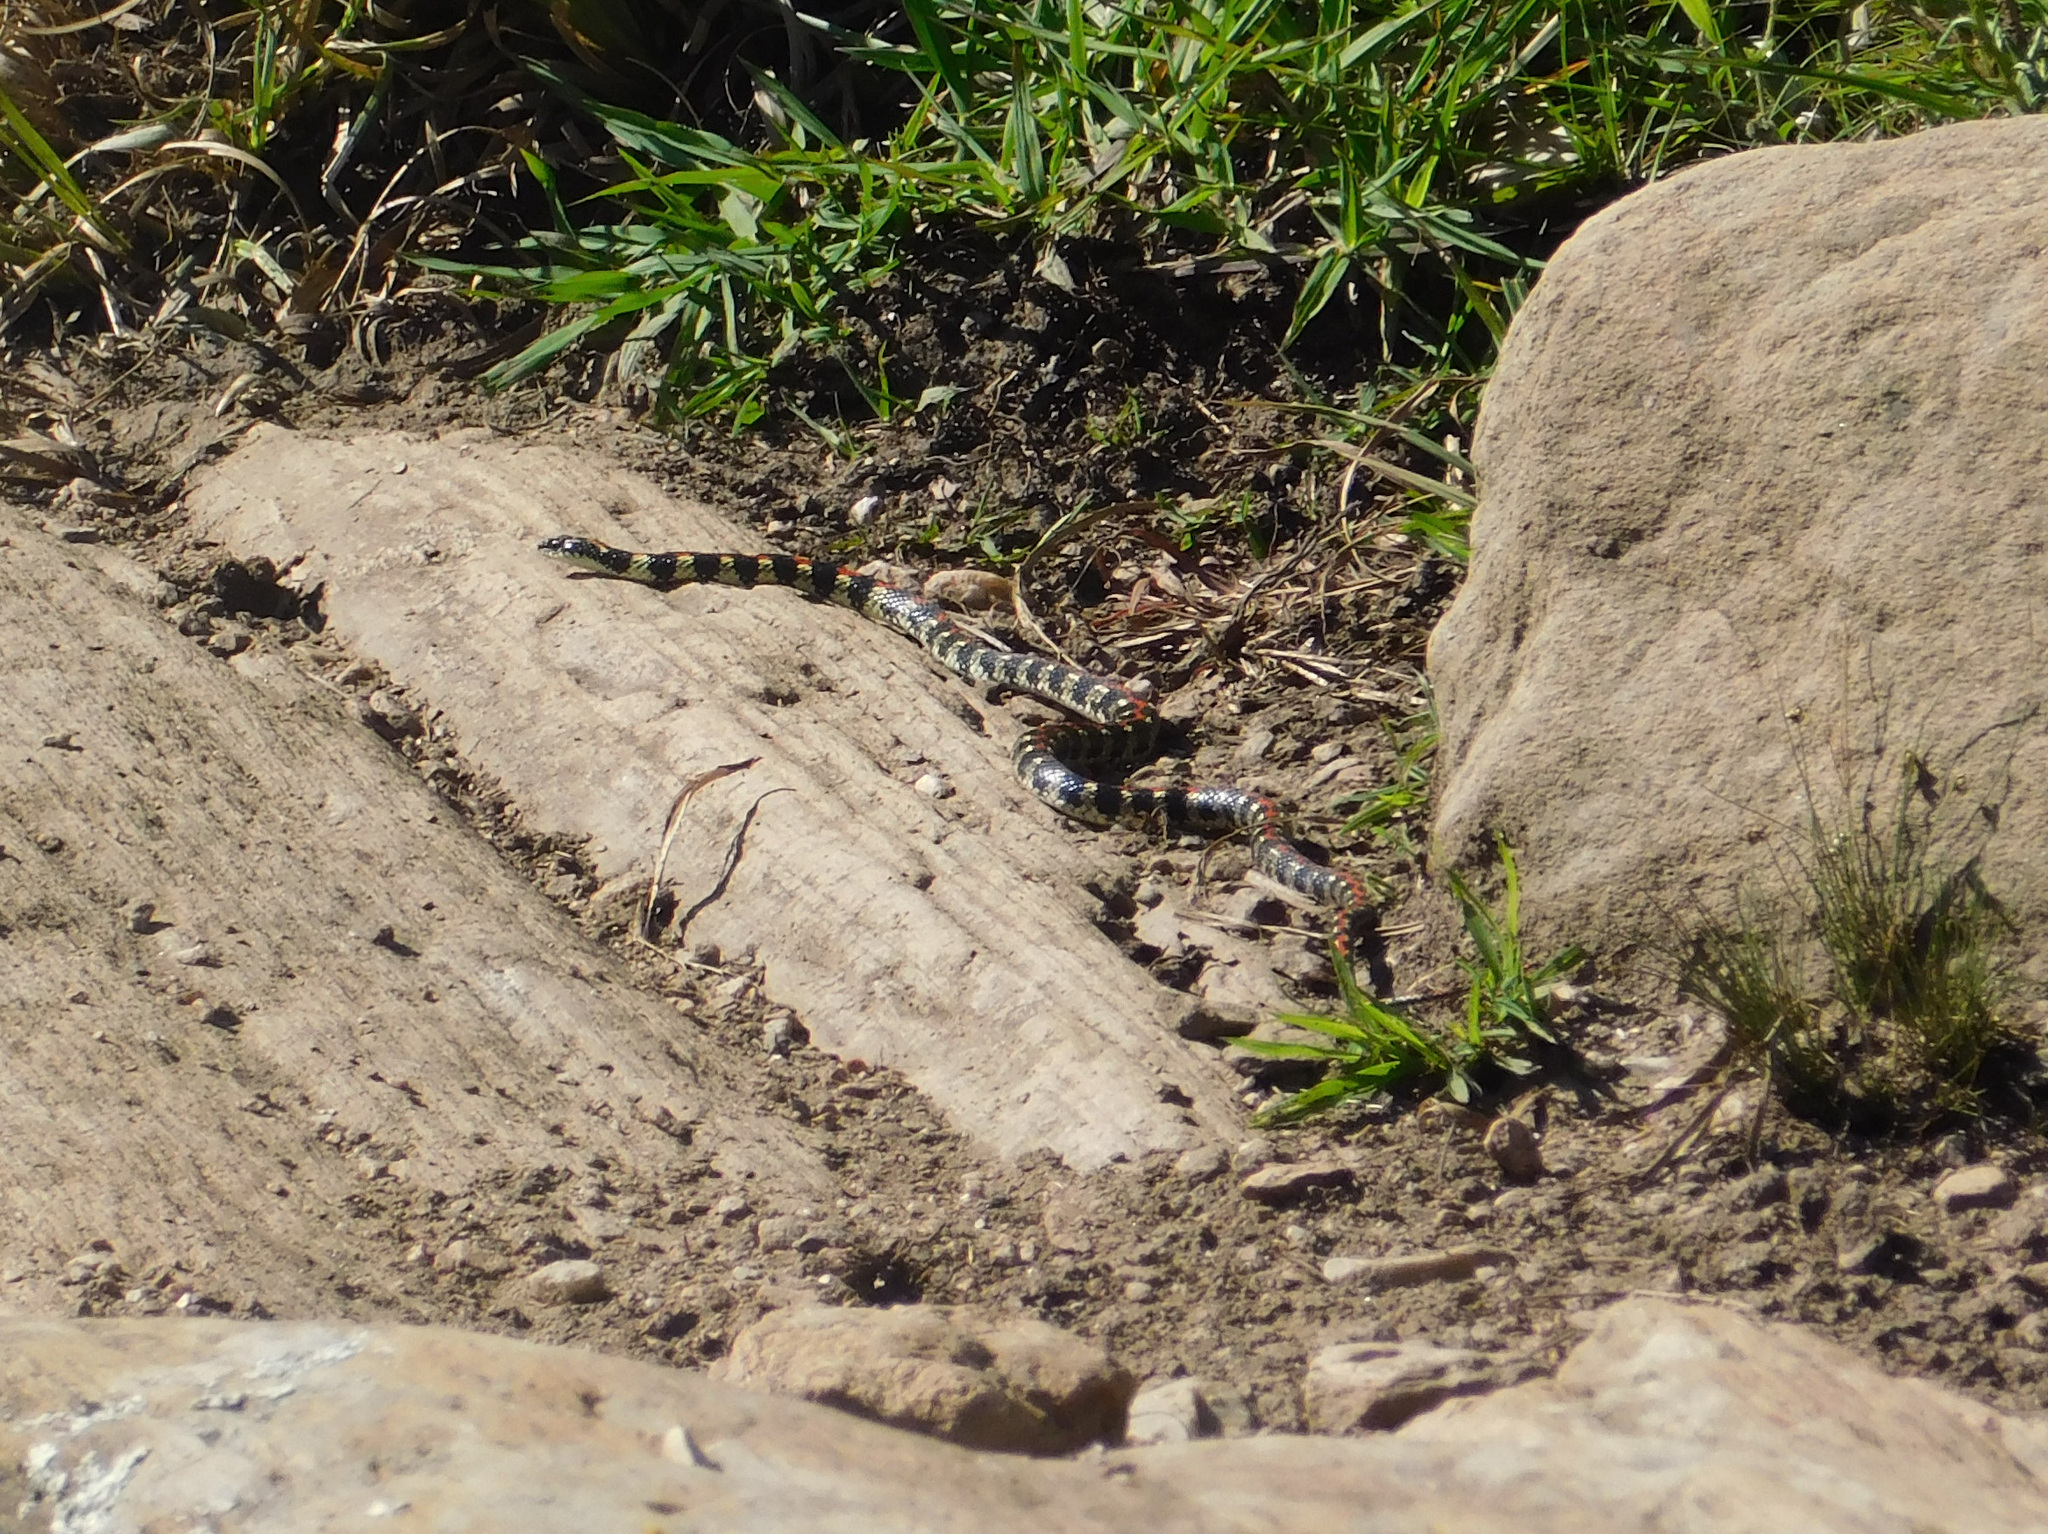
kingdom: Animalia
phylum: Chordata
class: Squamata
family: Colubridae
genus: Lygophis
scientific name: Lygophis elegantissimus
